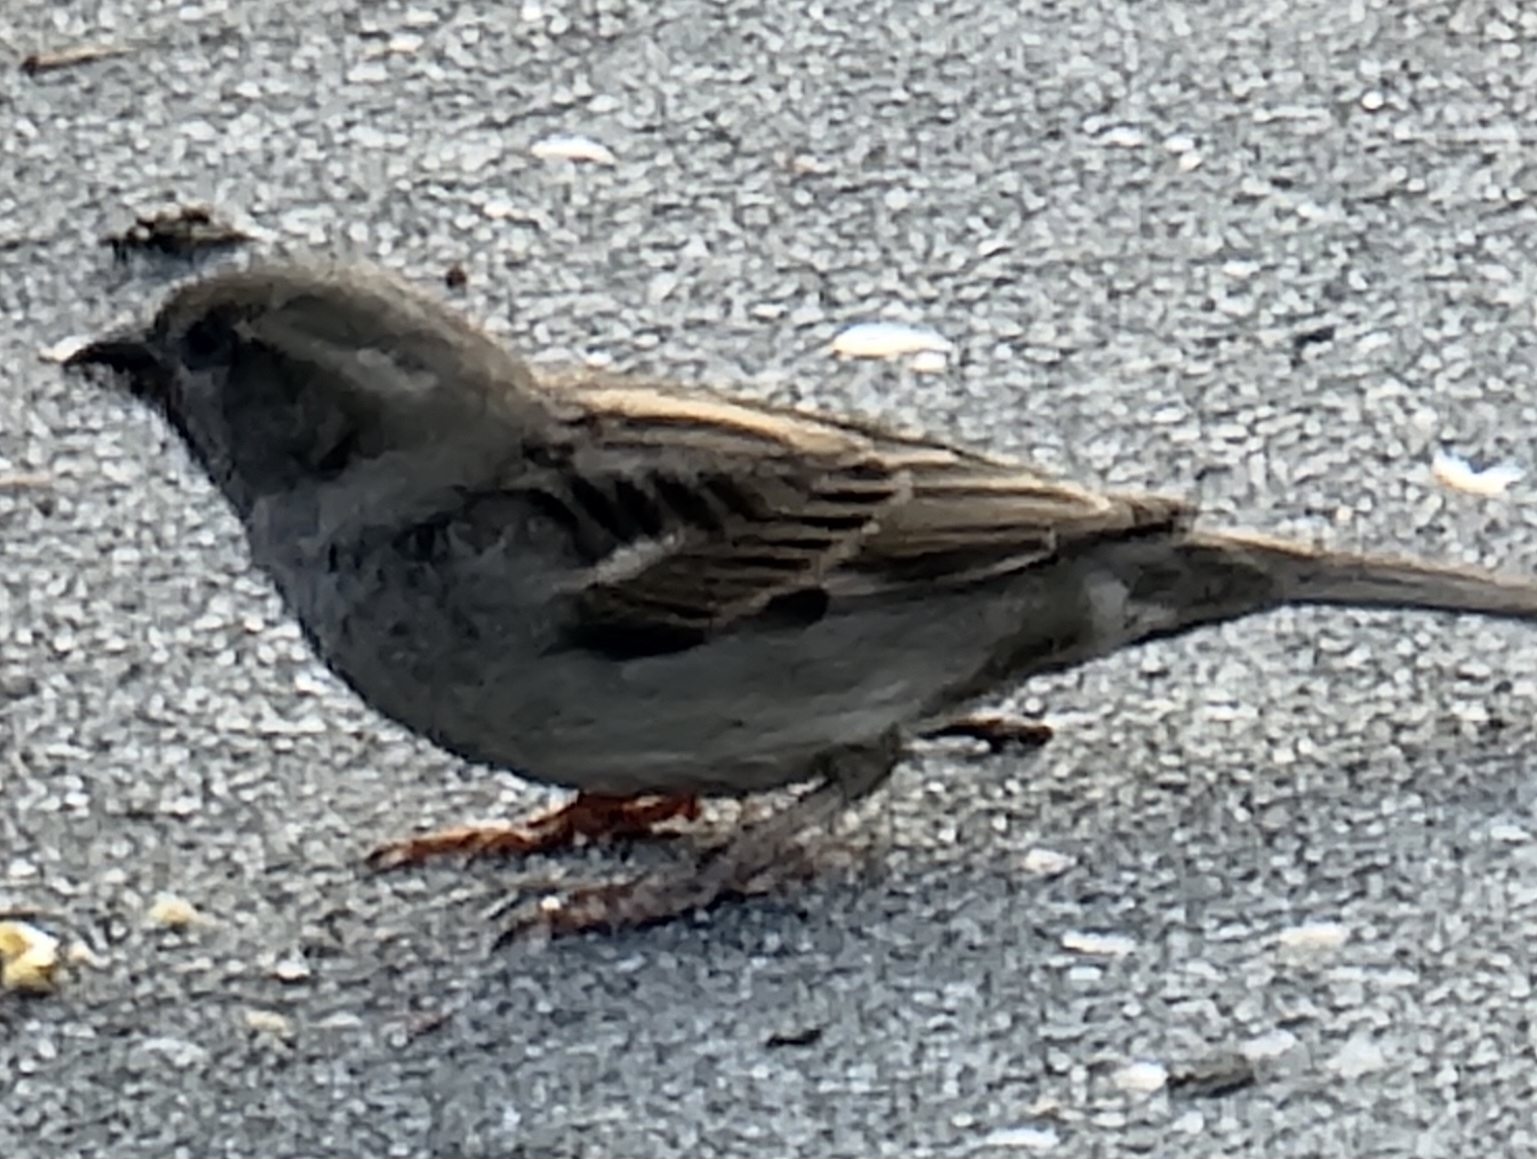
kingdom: Animalia
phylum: Chordata
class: Aves
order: Passeriformes
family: Passeridae
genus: Passer
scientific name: Passer domesticus
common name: House sparrow
